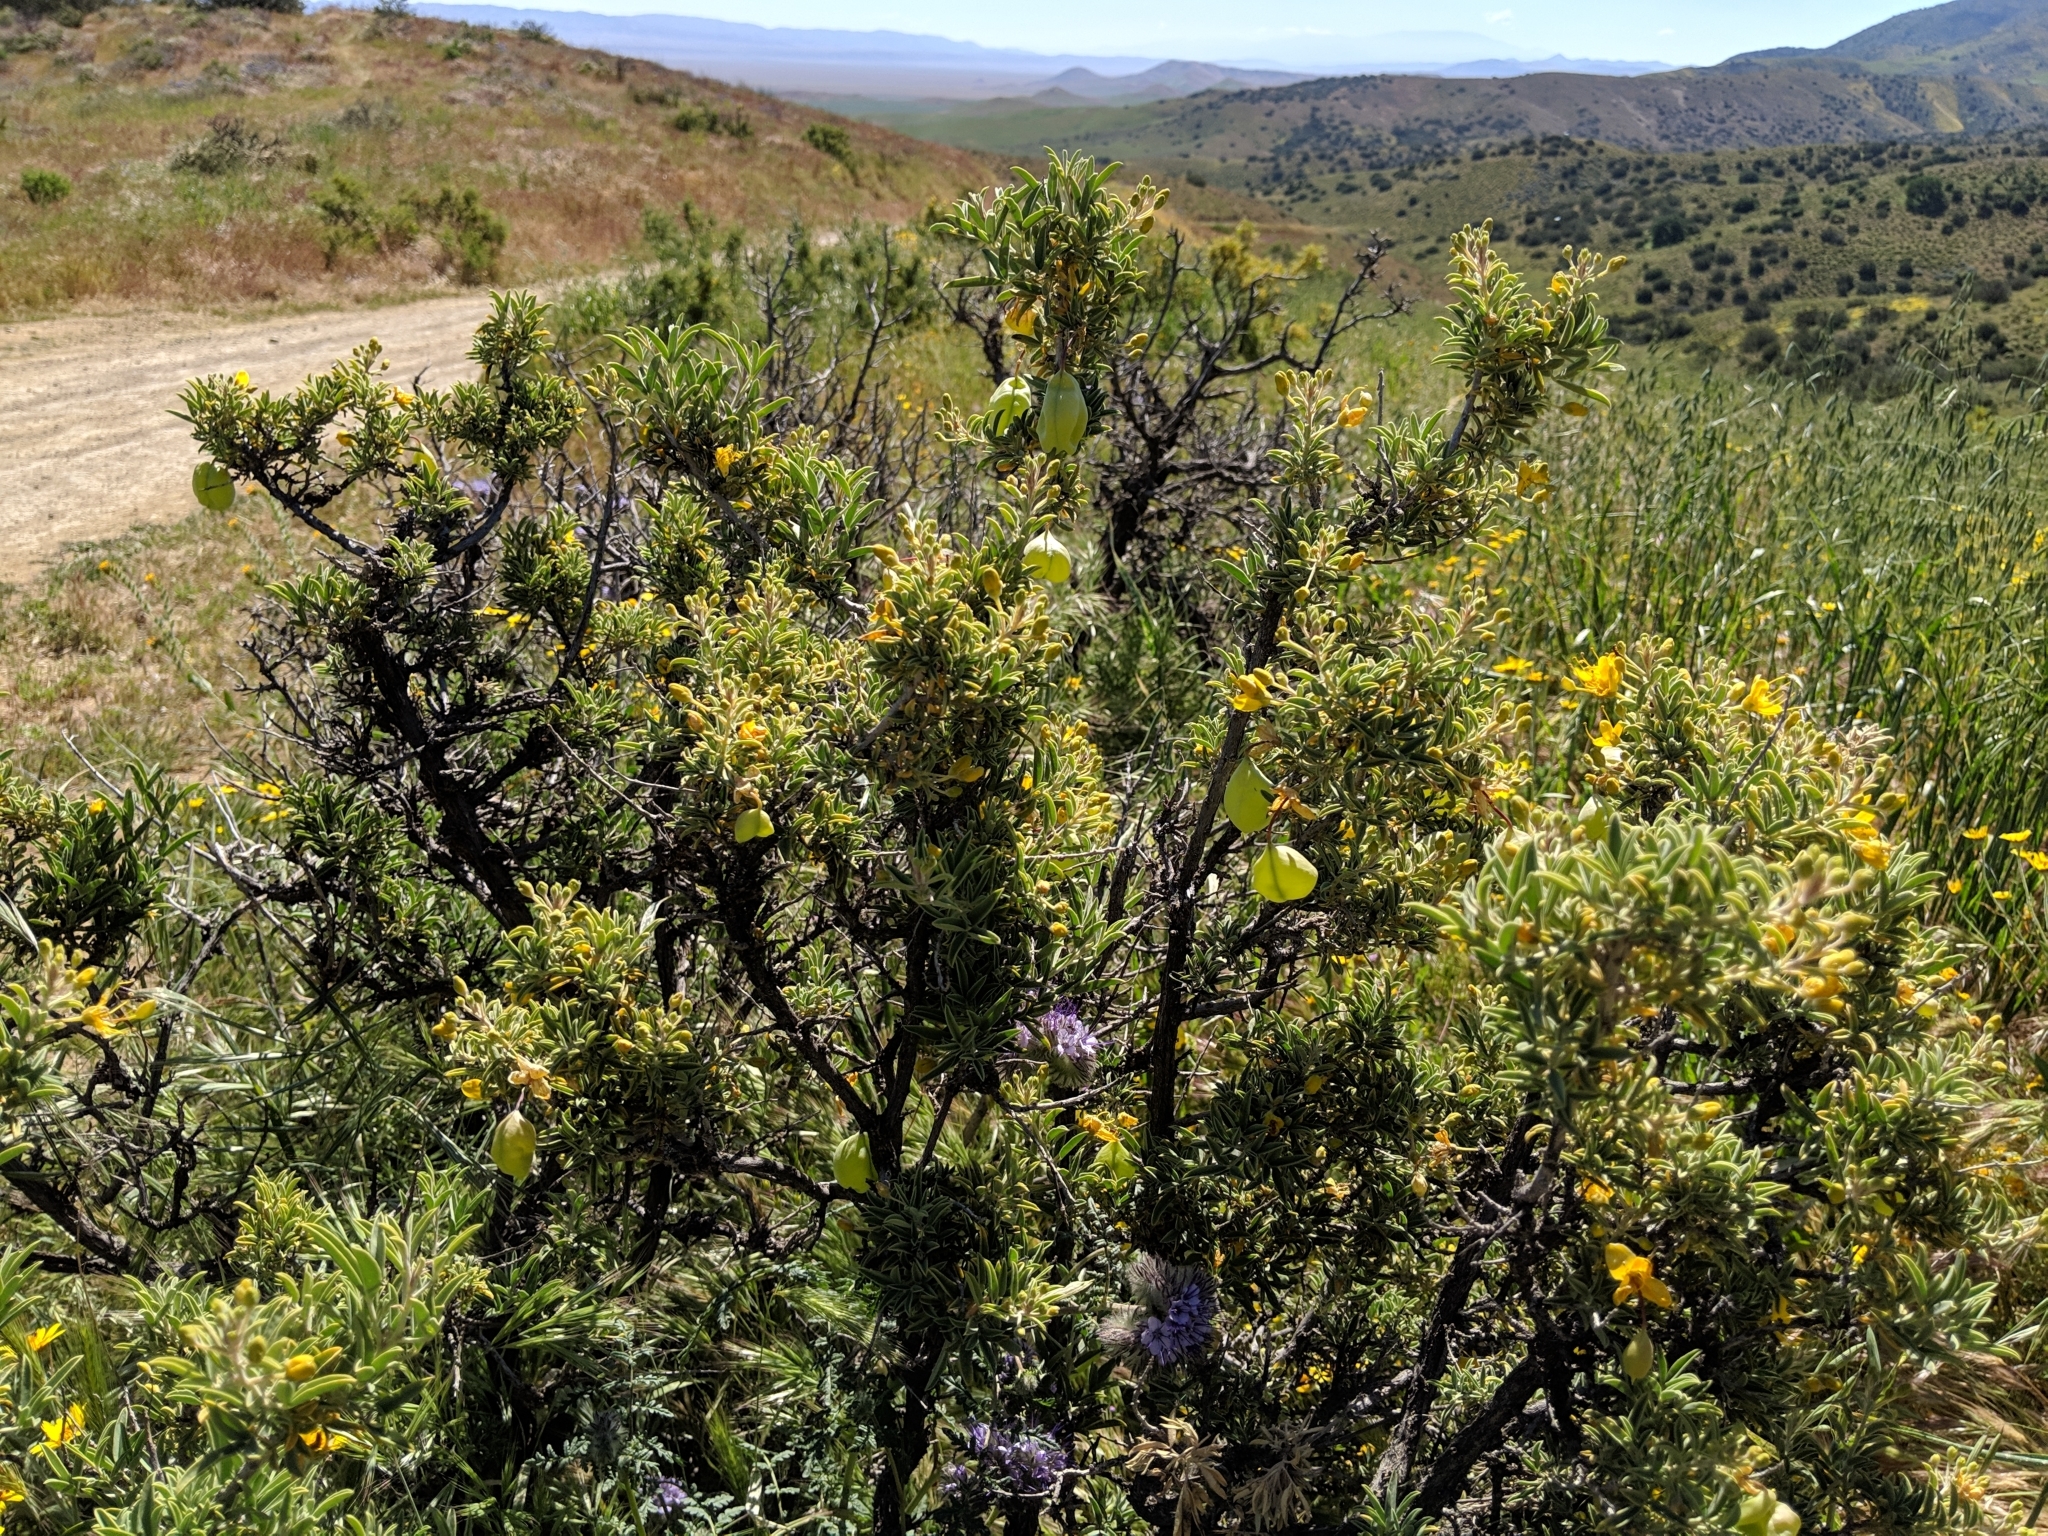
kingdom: Plantae
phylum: Tracheophyta
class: Magnoliopsida
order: Brassicales
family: Cleomaceae
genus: Cleomella
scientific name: Cleomella arborea
